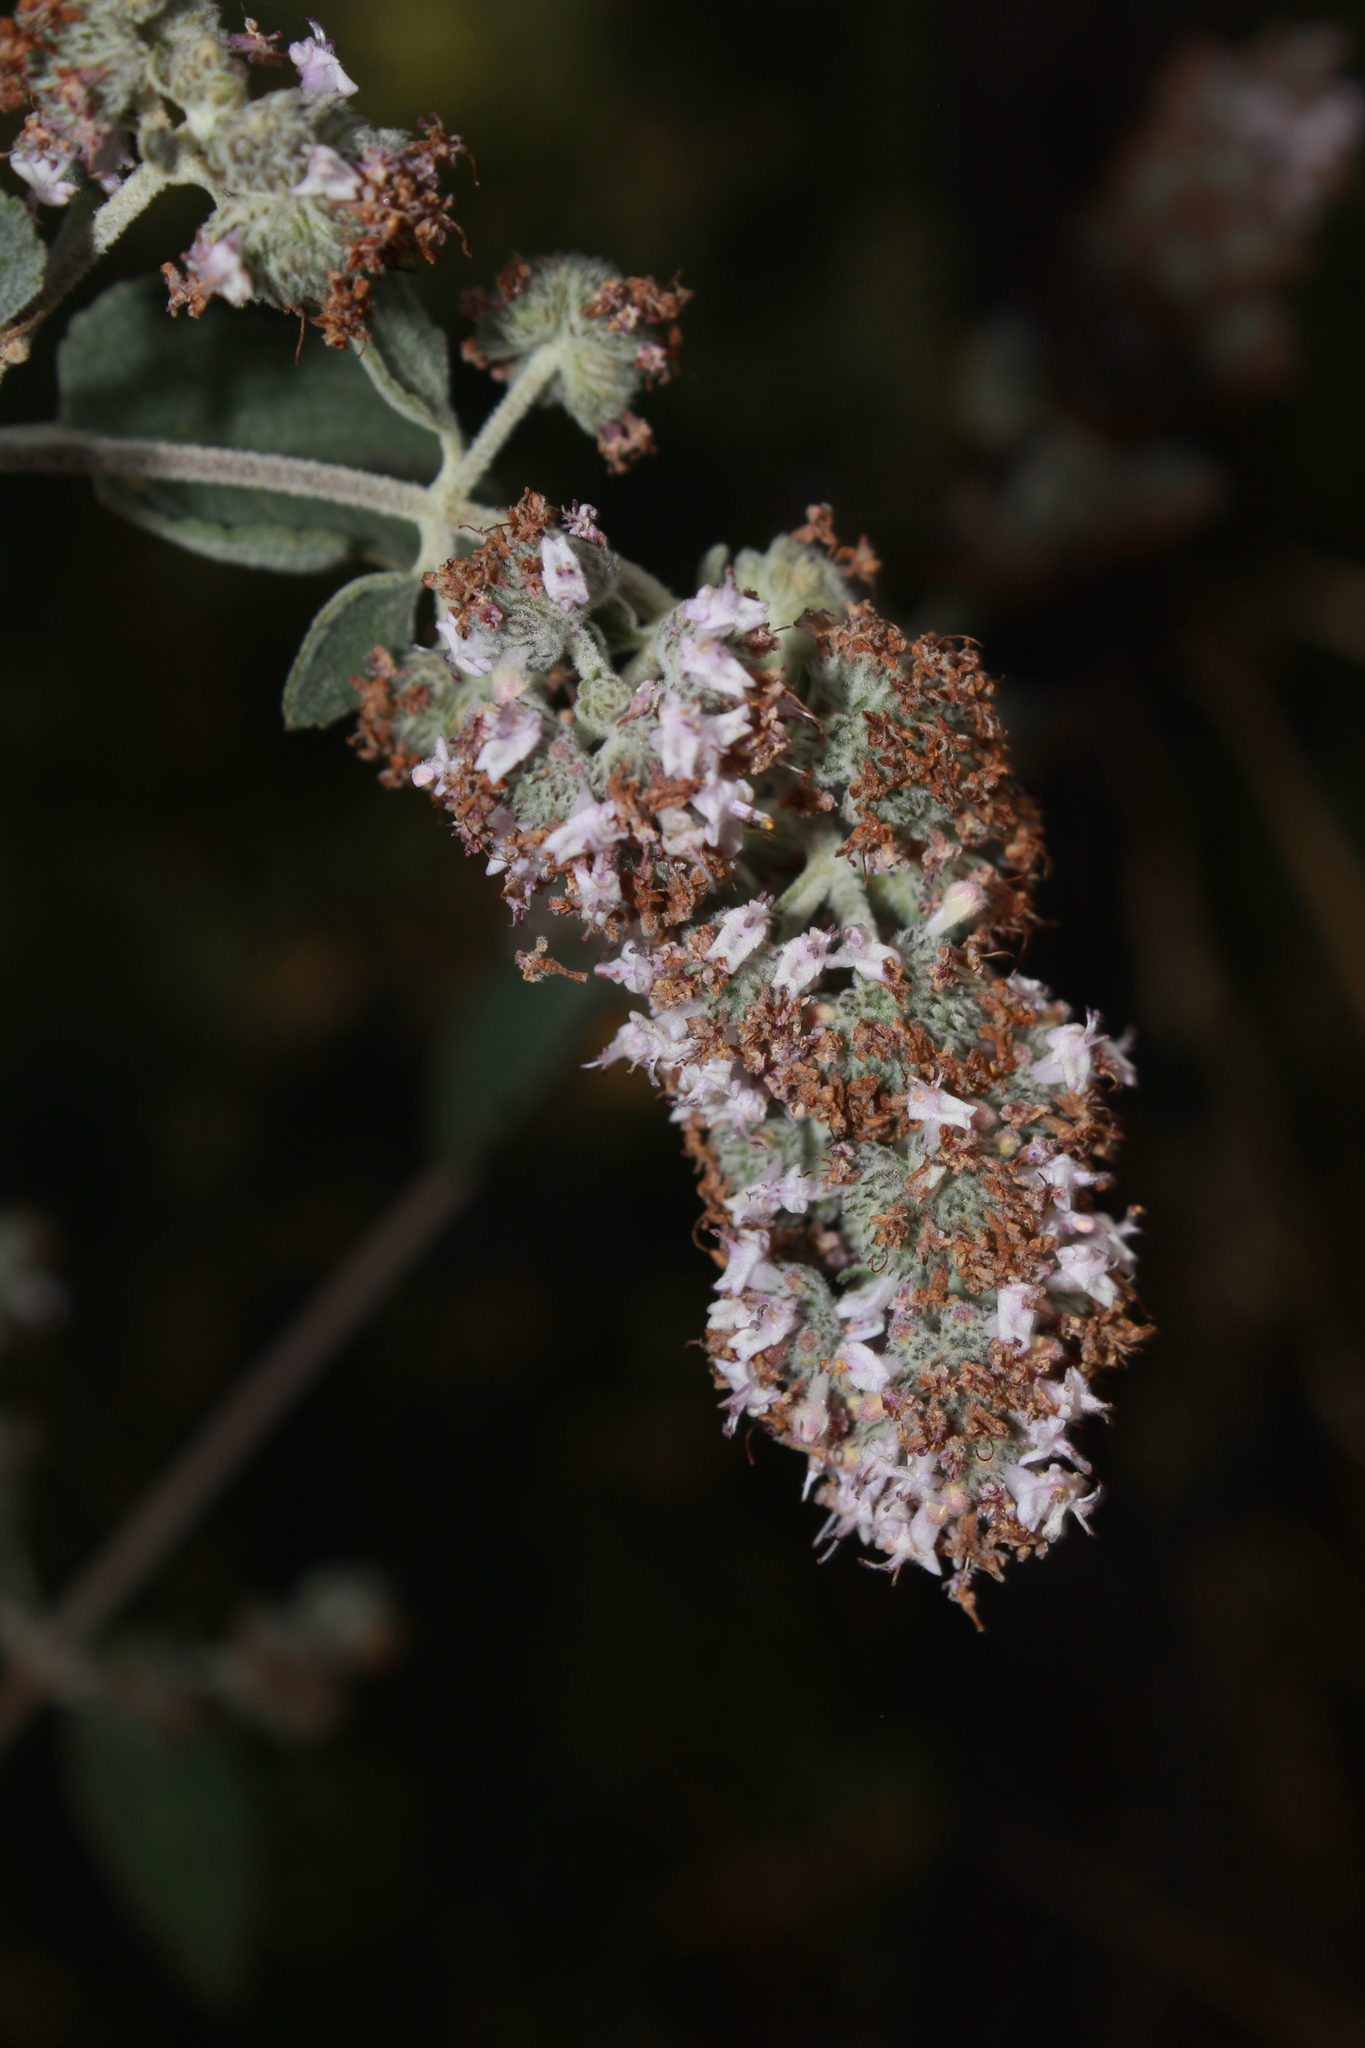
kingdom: Plantae
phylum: Tracheophyta
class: Magnoliopsida
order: Lamiales
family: Lamiaceae
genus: Mesosphaerum
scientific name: Mesosphaerum oblongifolium
